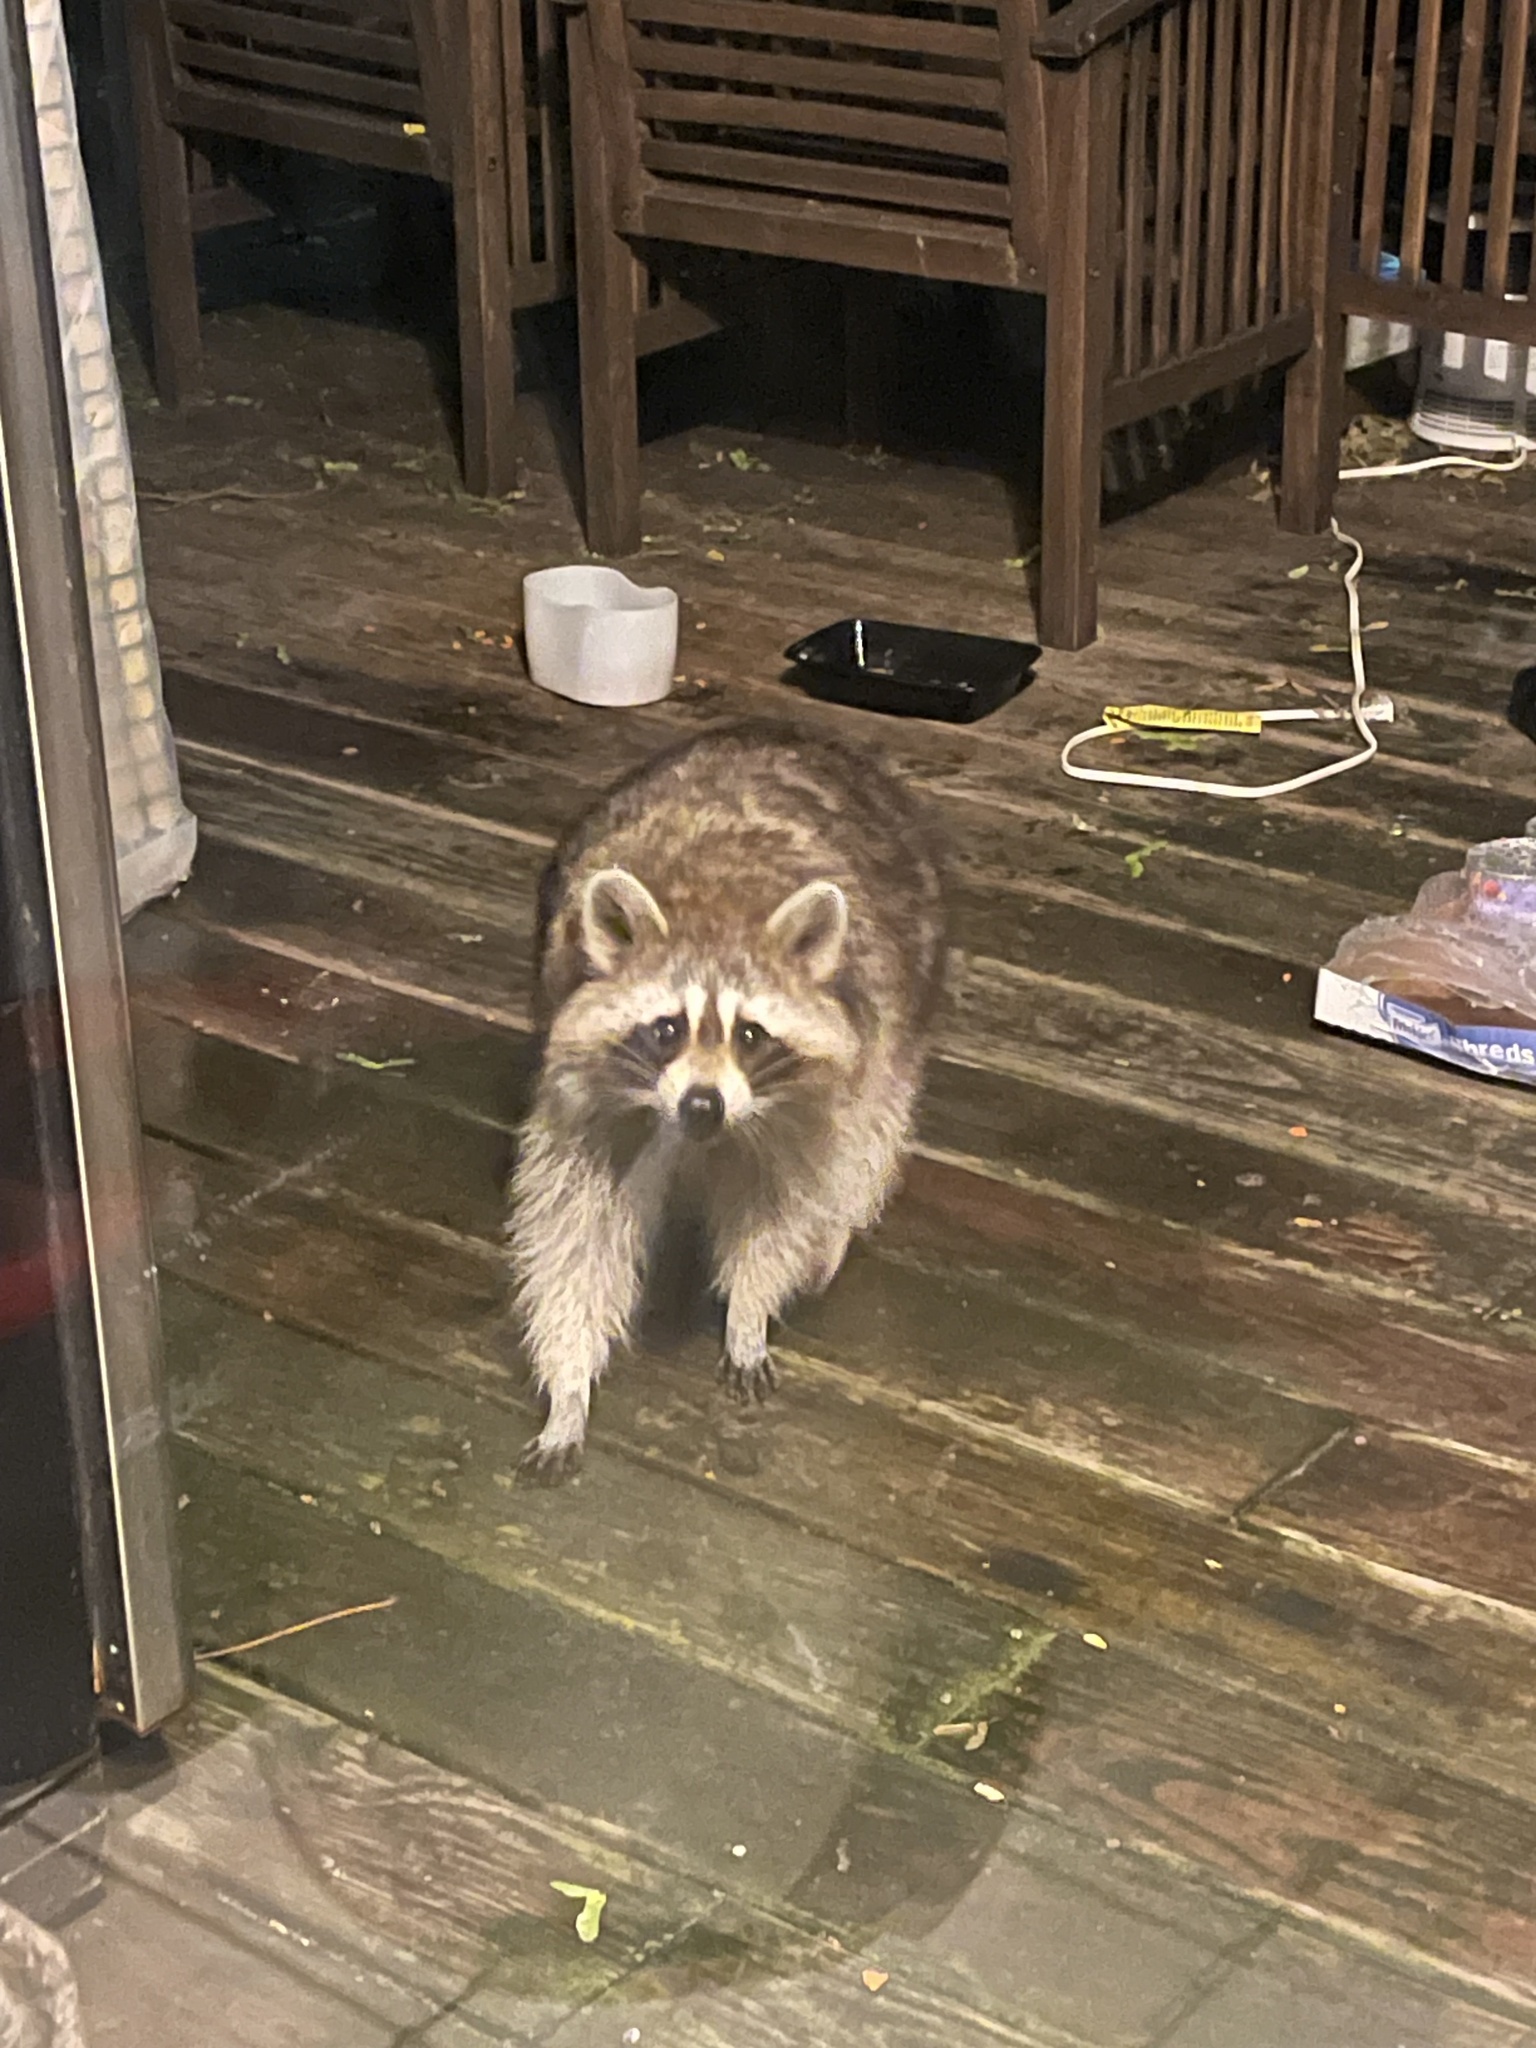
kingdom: Animalia
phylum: Chordata
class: Mammalia
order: Carnivora
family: Procyonidae
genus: Procyon
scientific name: Procyon lotor
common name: Raccoon
